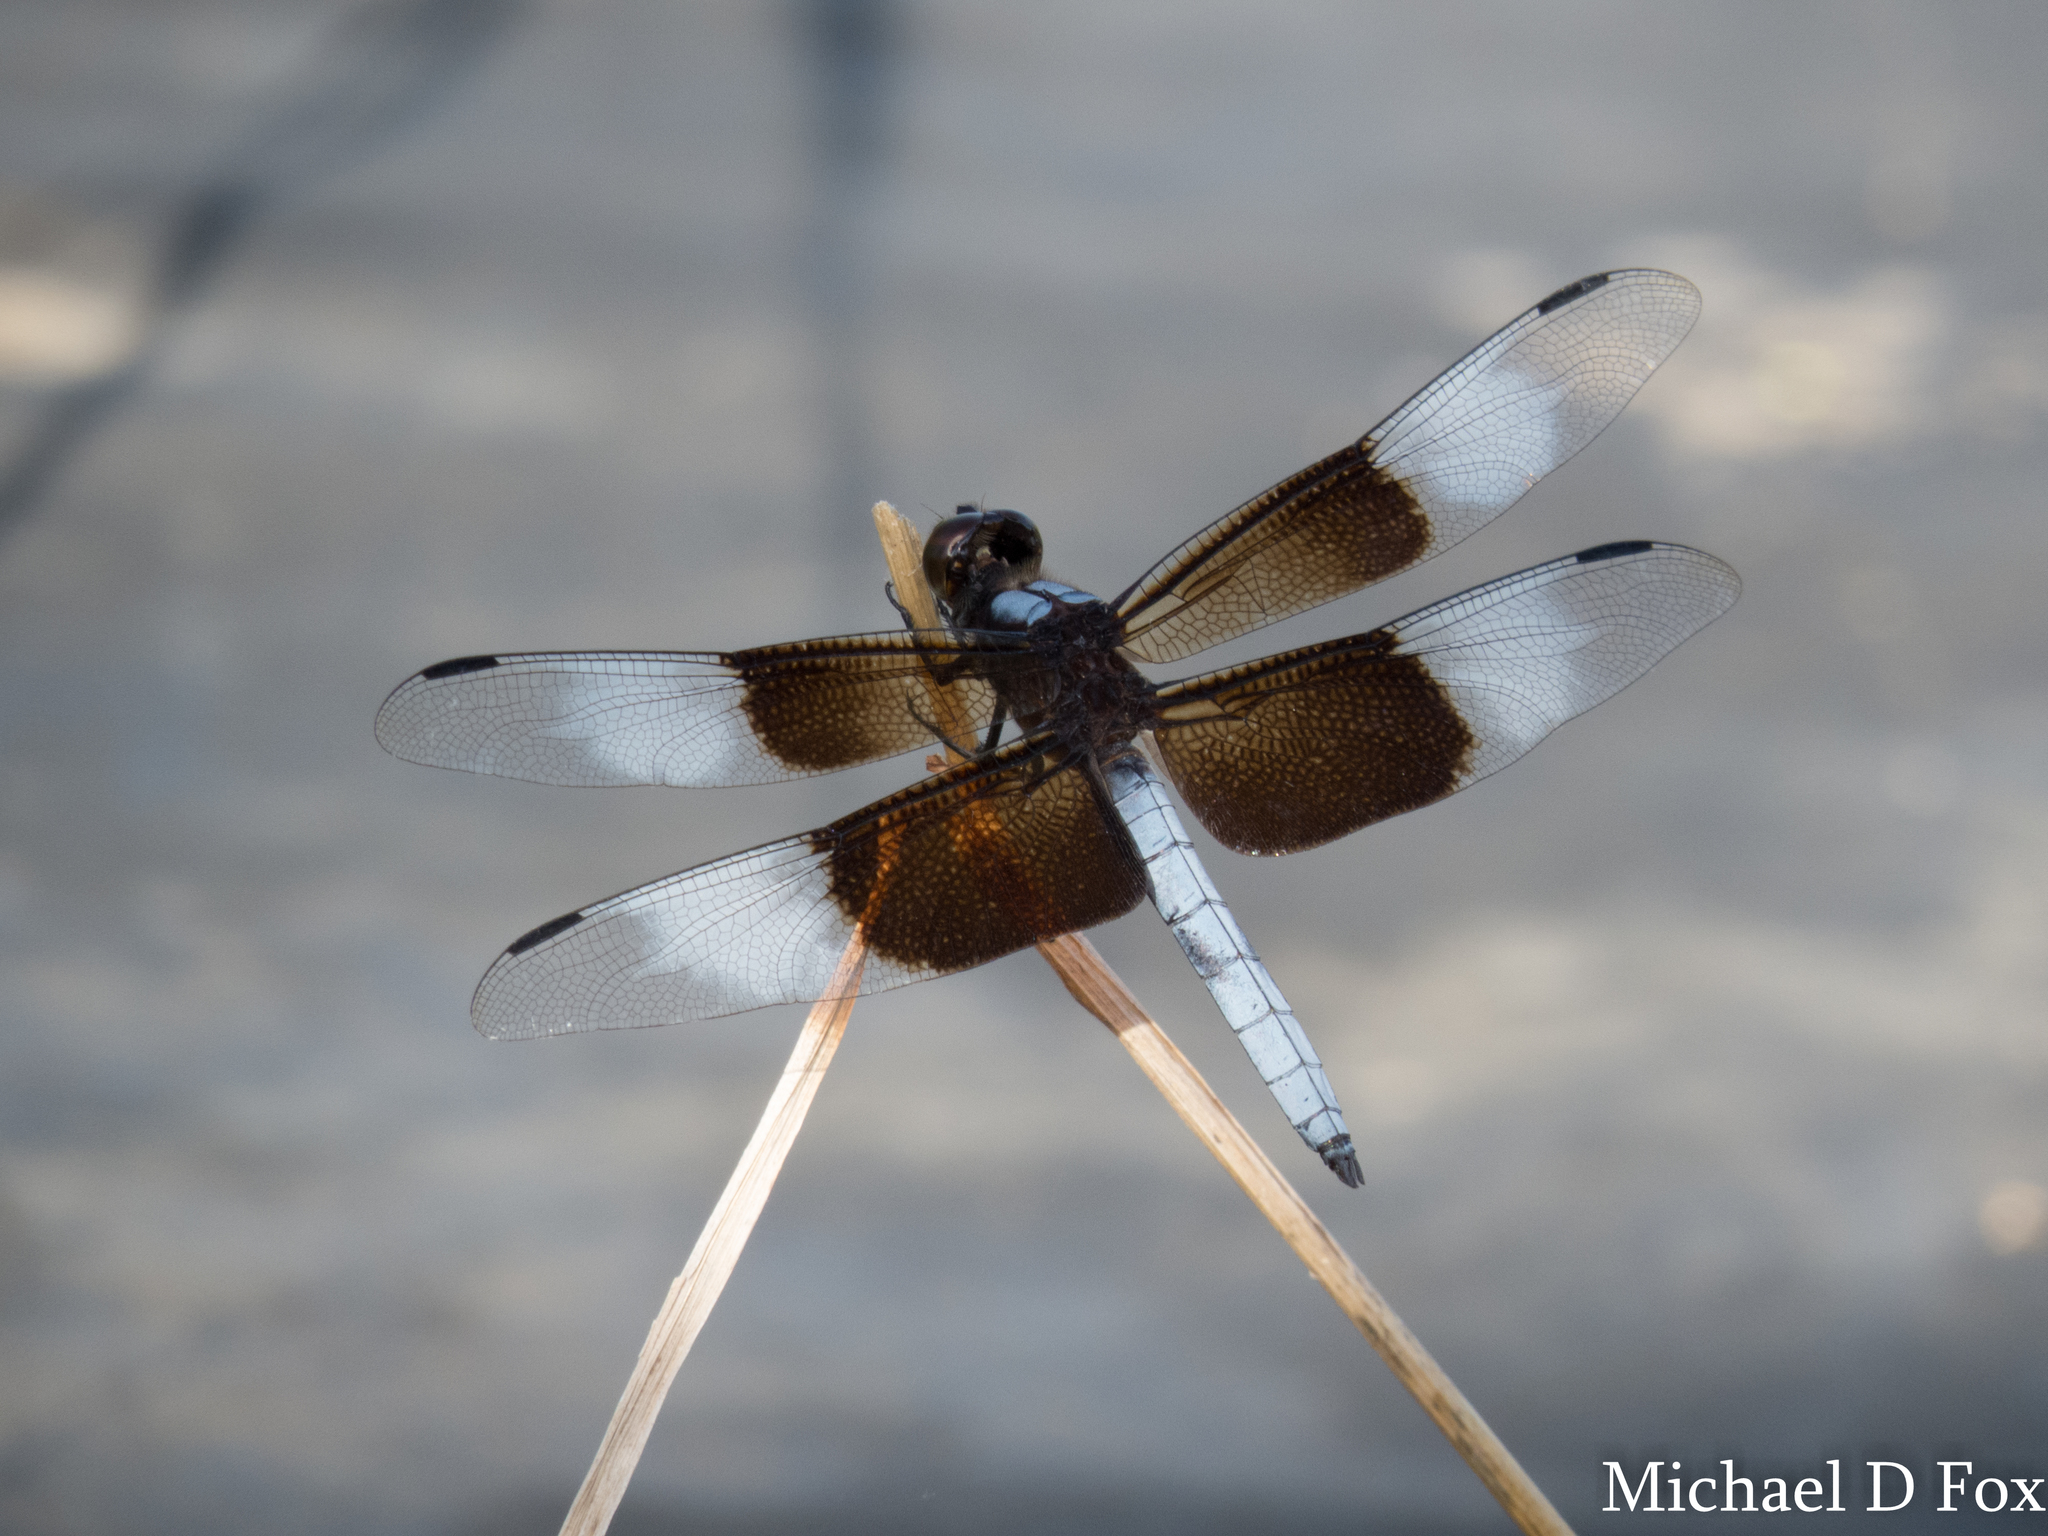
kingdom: Animalia
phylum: Arthropoda
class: Insecta
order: Odonata
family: Libellulidae
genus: Libellula
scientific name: Libellula luctuosa
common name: Widow skimmer
